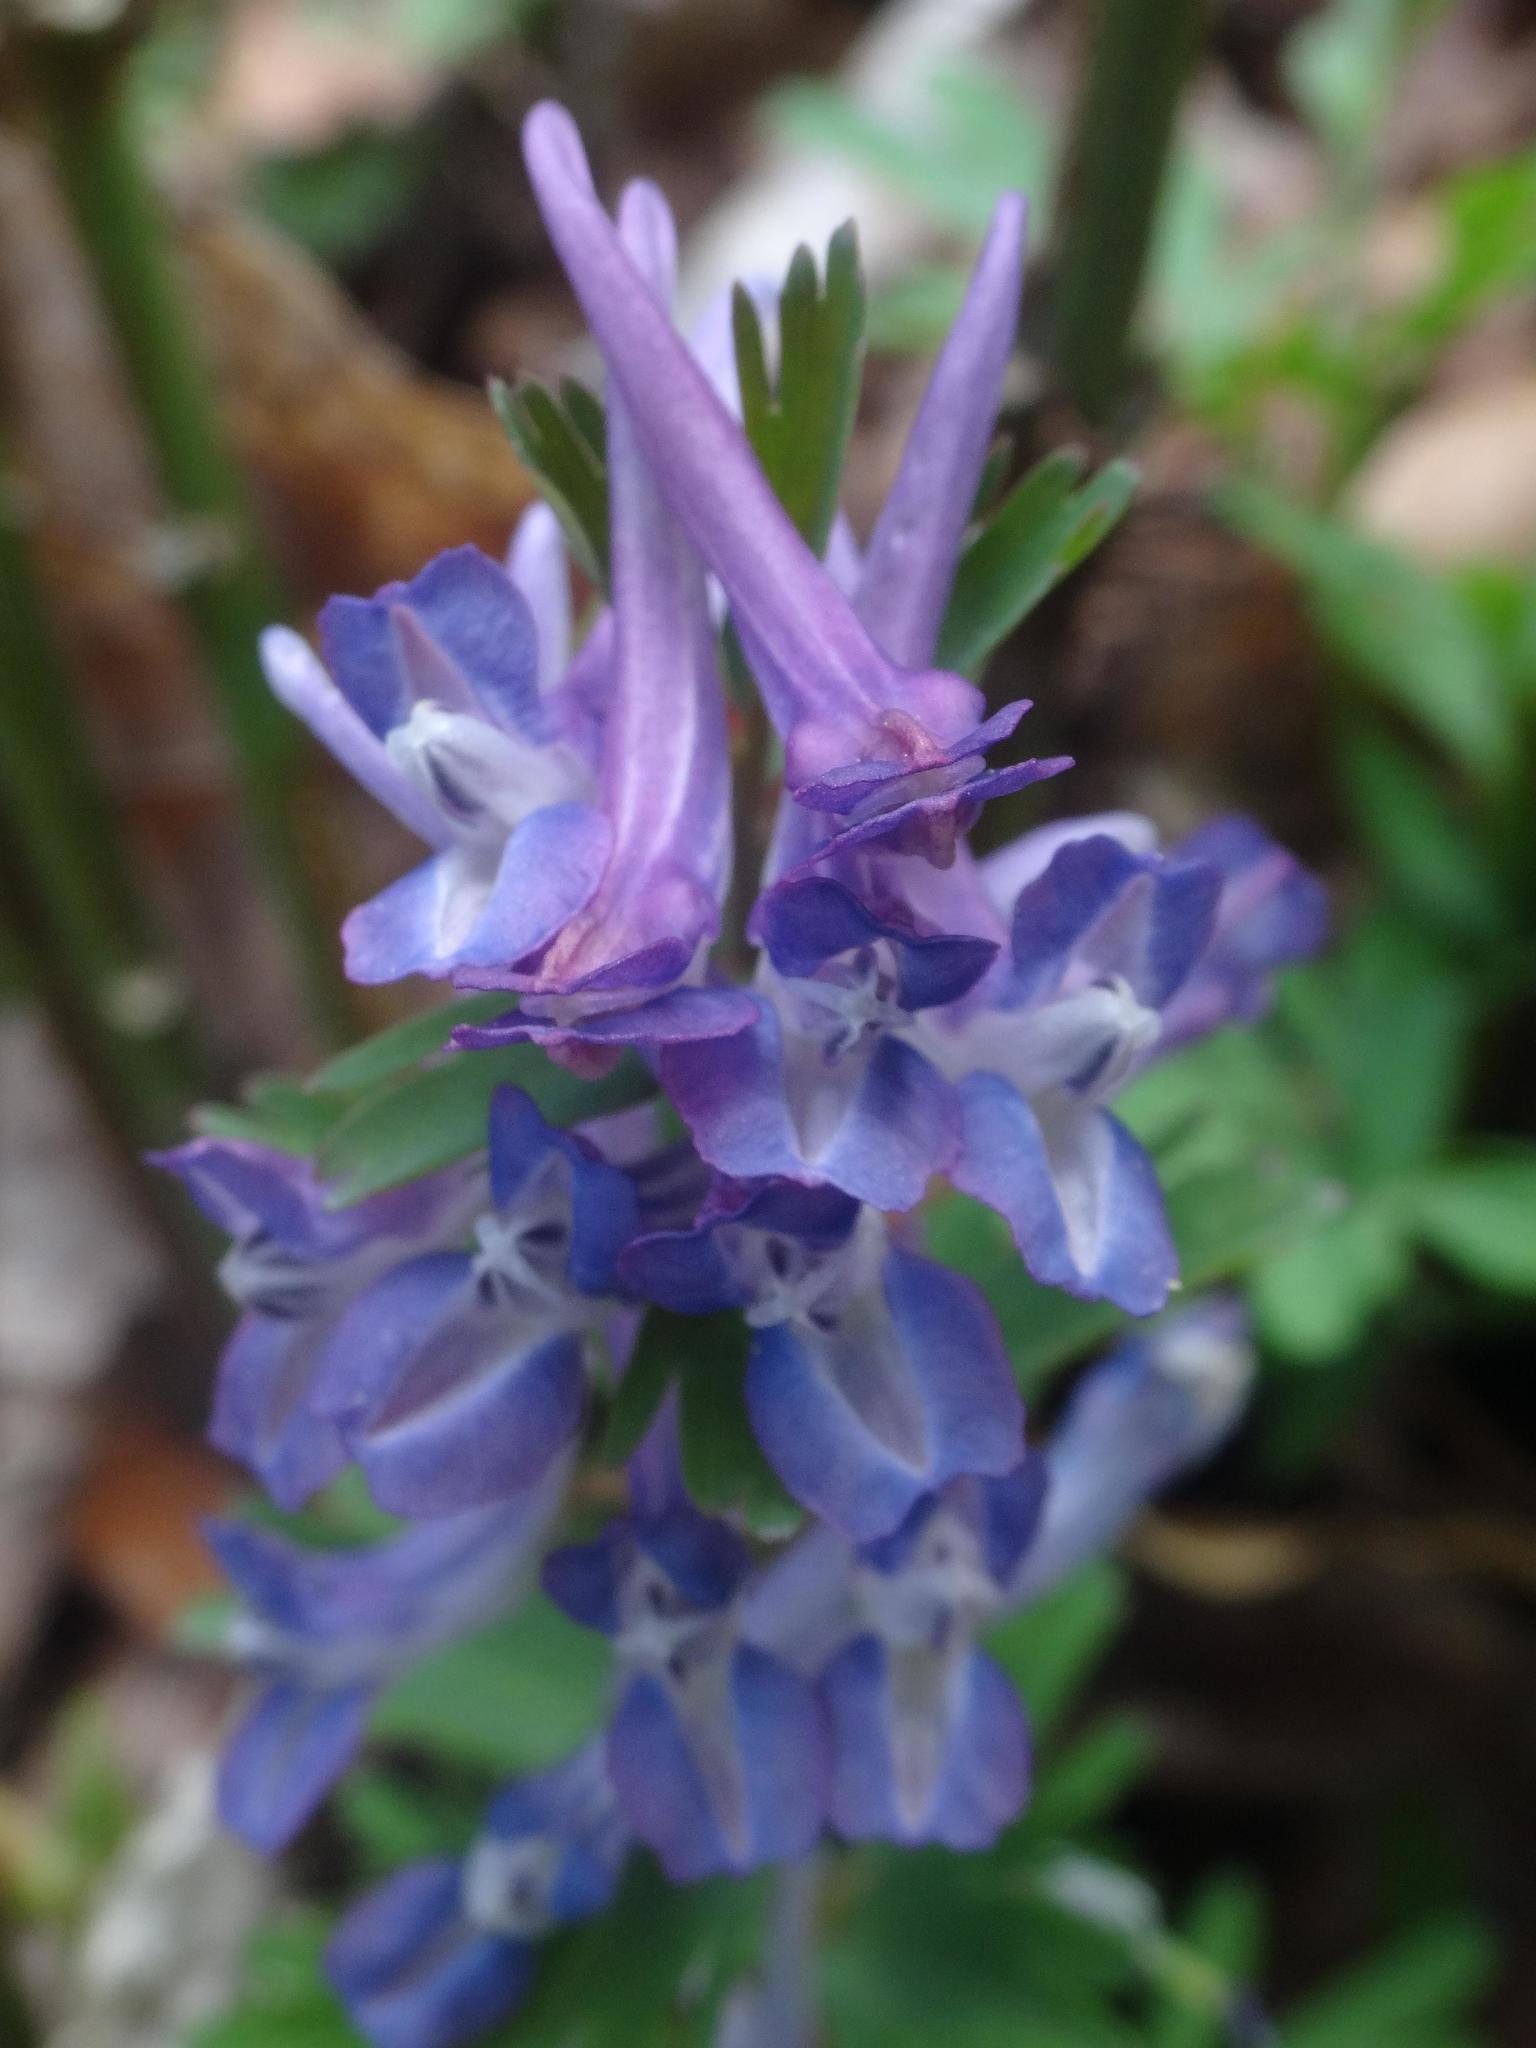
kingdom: Plantae
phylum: Tracheophyta
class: Magnoliopsida
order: Ranunculales
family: Papaveraceae
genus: Corydalis
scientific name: Corydalis solida
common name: Bird-in-a-bush
